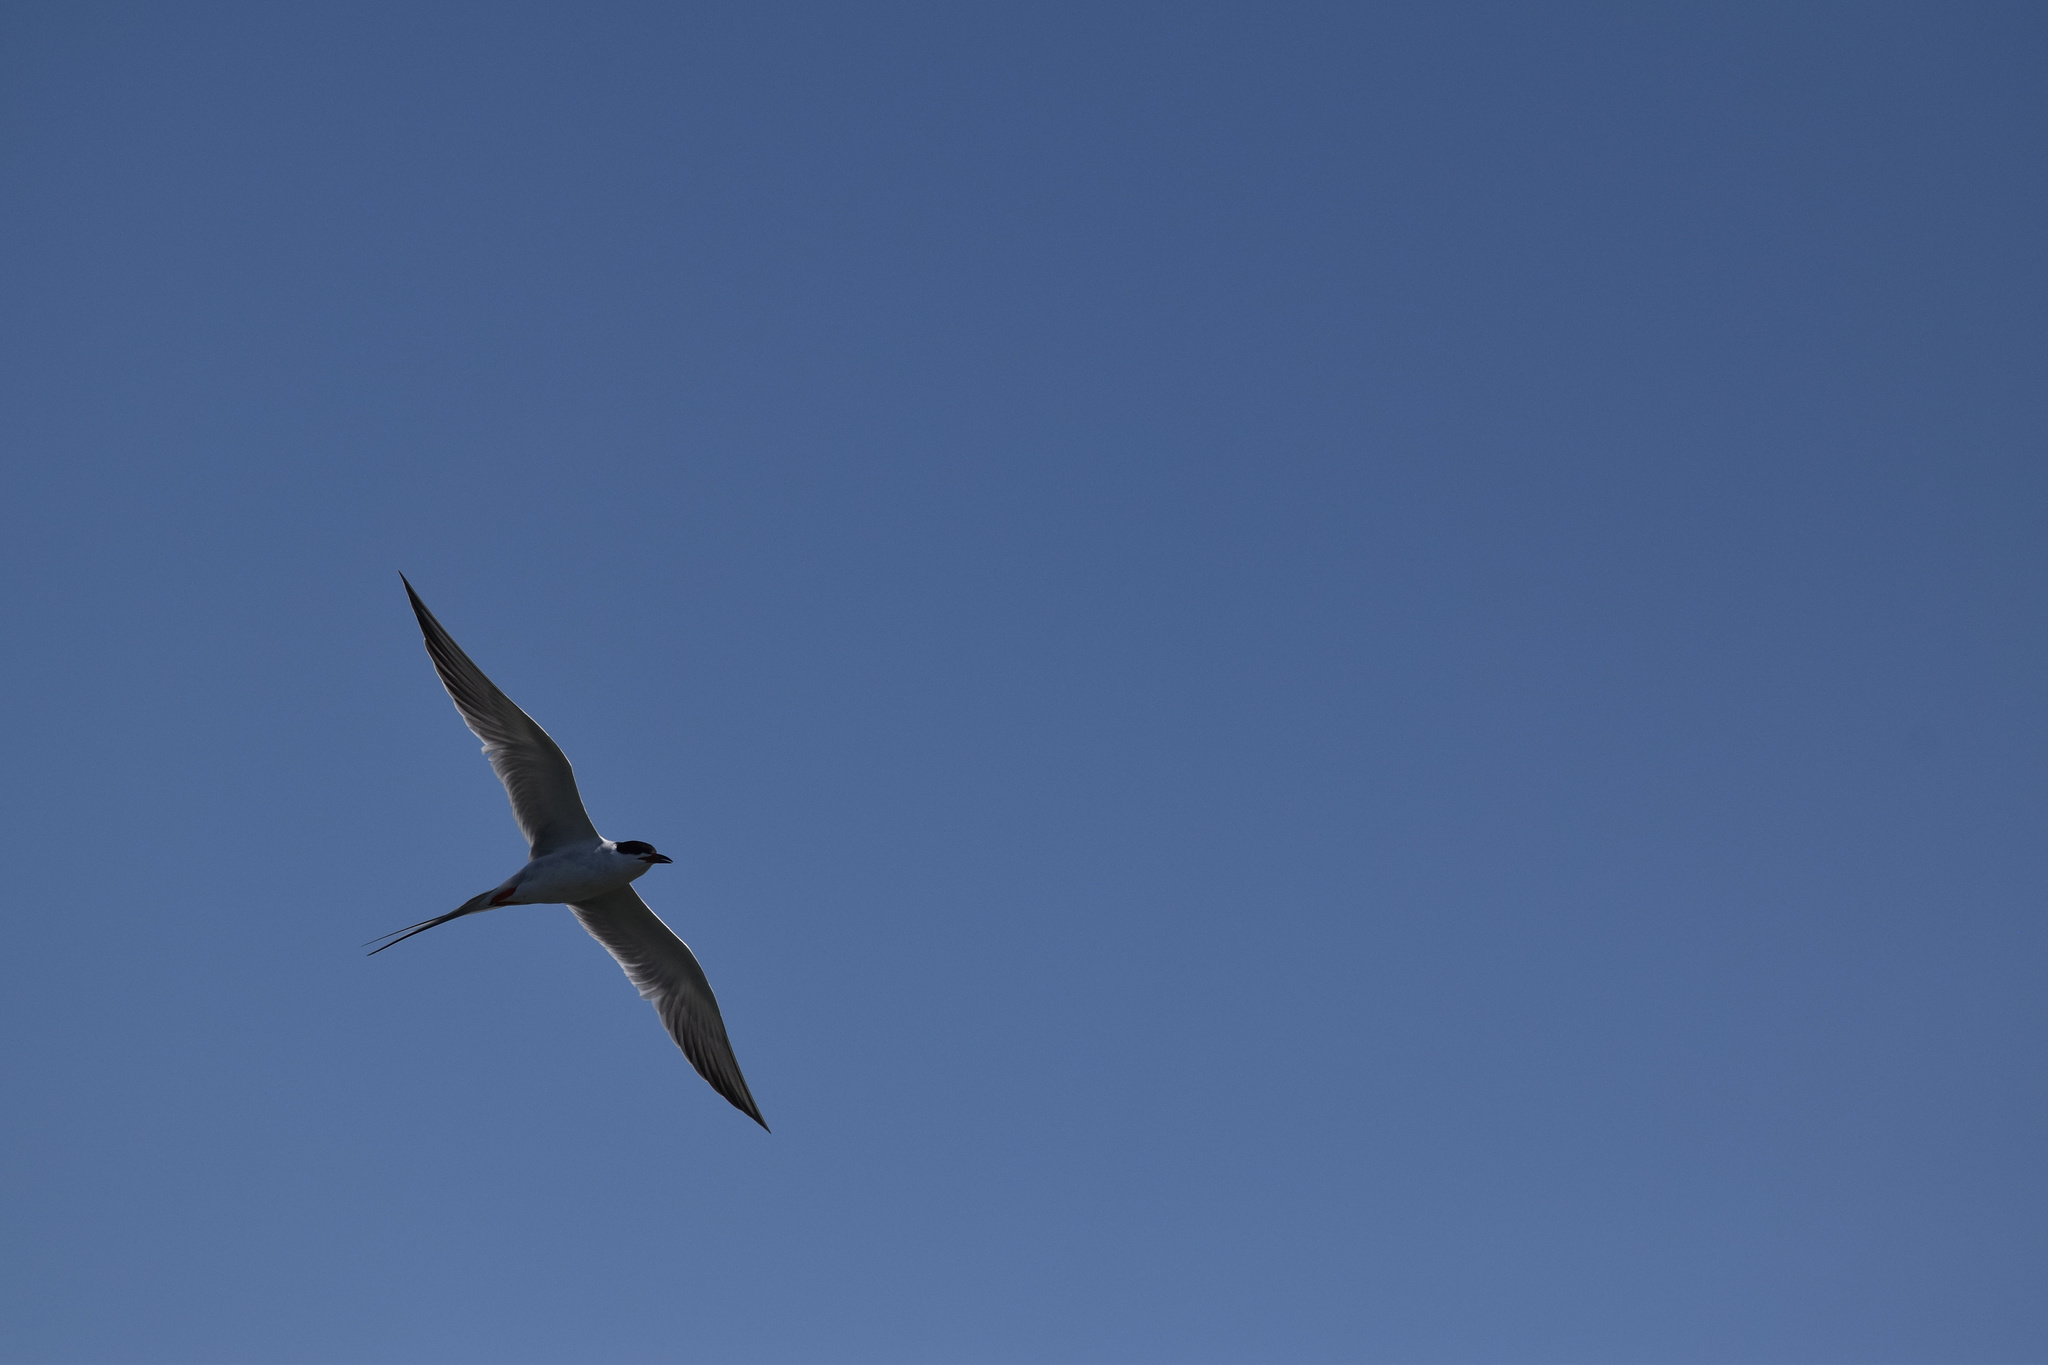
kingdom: Animalia
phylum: Chordata
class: Aves
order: Charadriiformes
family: Laridae
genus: Sterna
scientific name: Sterna forsteri
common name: Forster's tern
